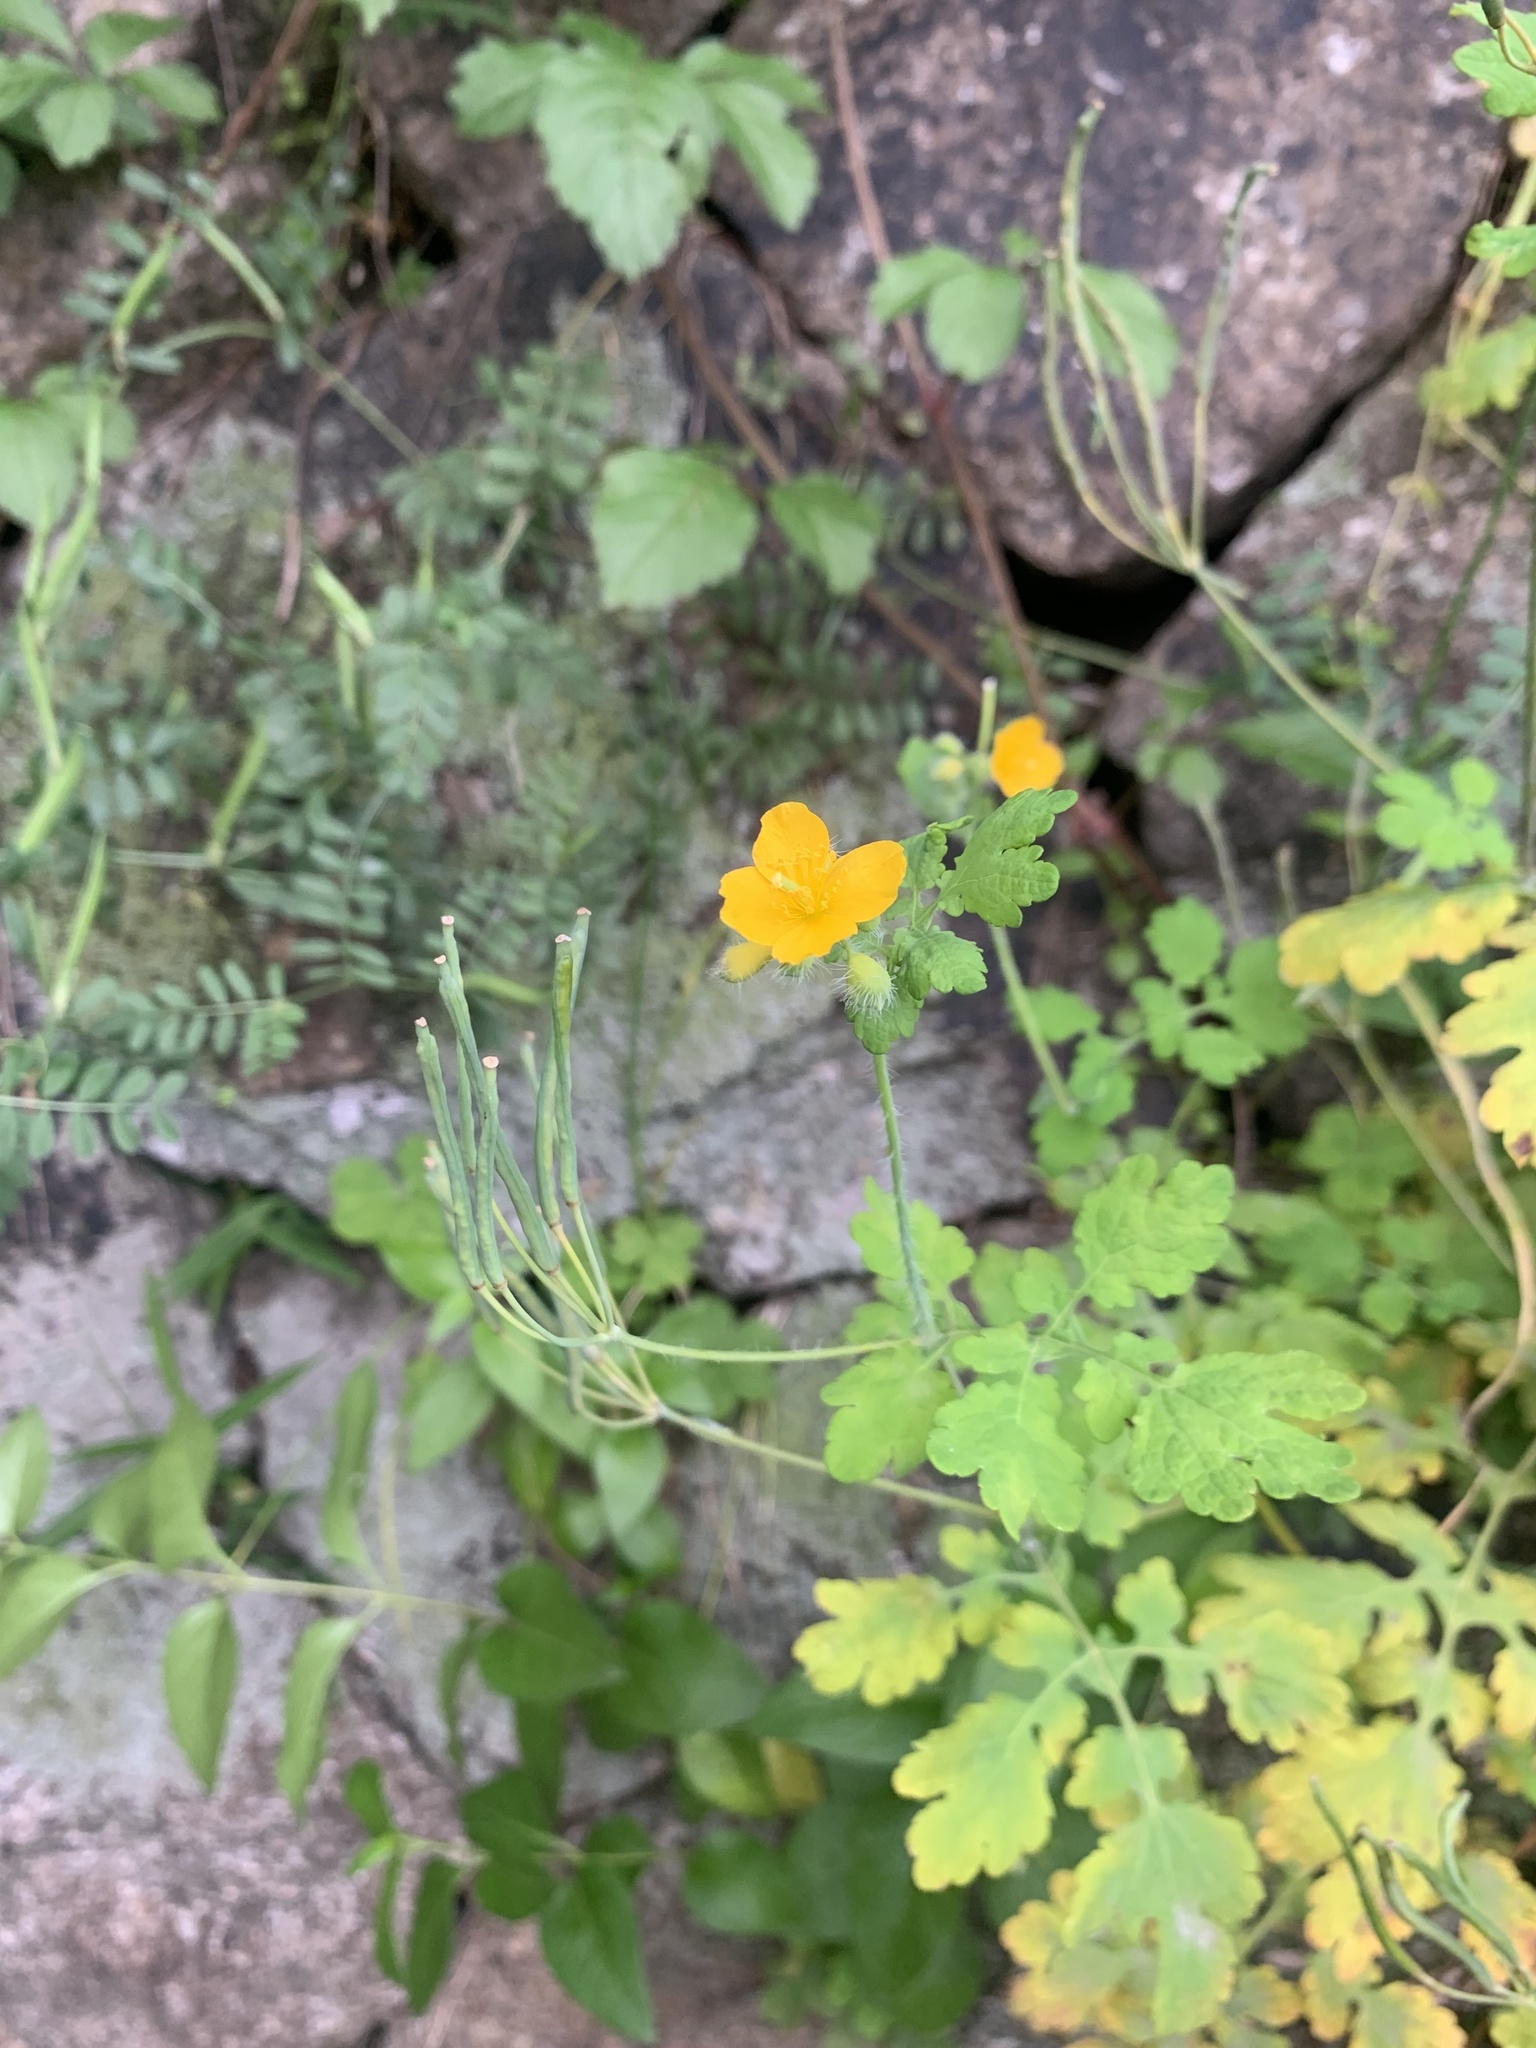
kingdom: Plantae
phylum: Tracheophyta
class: Magnoliopsida
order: Ranunculales
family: Papaveraceae
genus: Chelidonium
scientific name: Chelidonium majus
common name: Greater celandine
